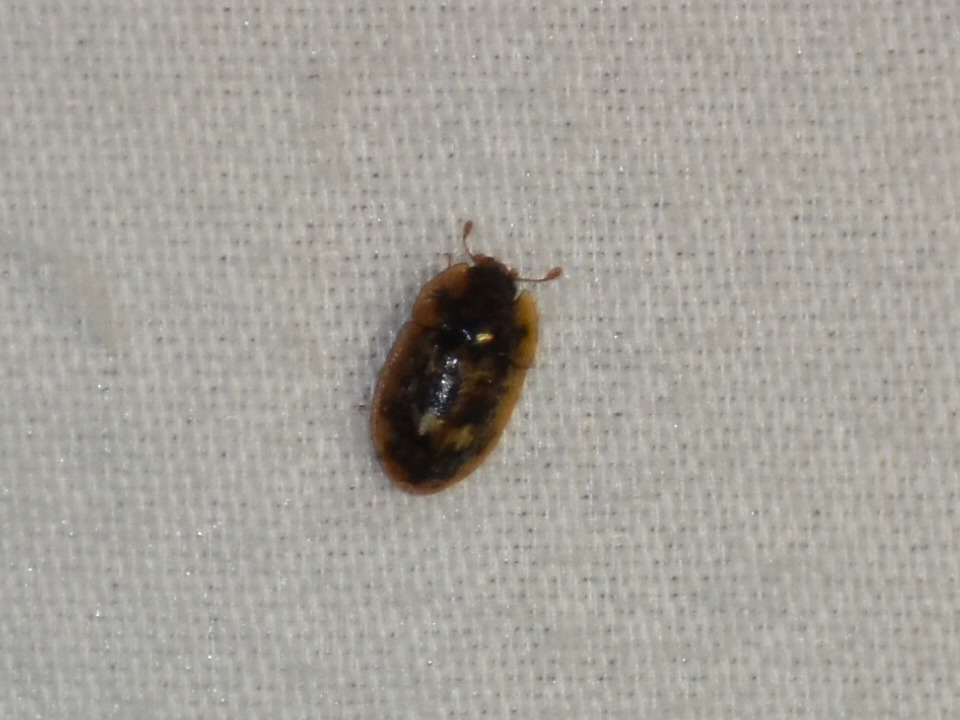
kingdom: Animalia
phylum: Arthropoda
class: Insecta
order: Coleoptera
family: Nitidulidae
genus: Lobiopa
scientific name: Lobiopa undulata
